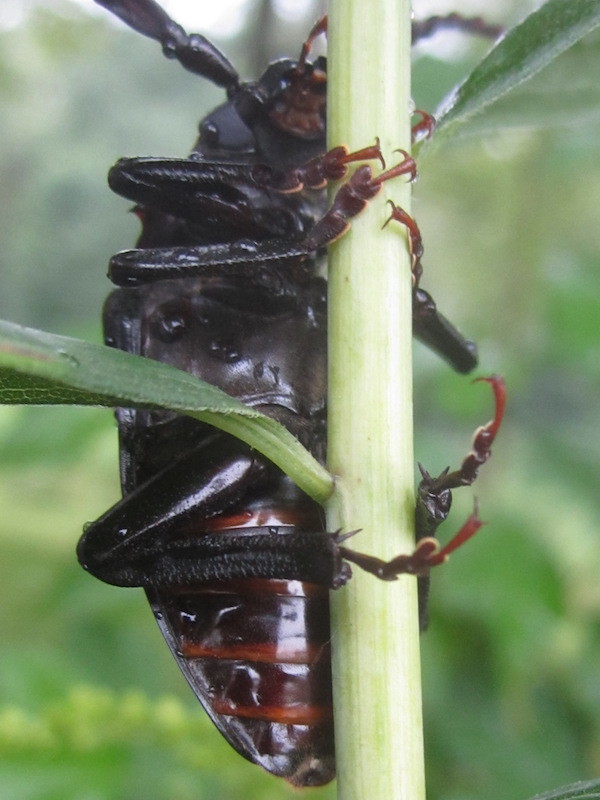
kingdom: Animalia
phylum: Arthropoda
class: Insecta
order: Coleoptera
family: Cerambycidae
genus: Prionus
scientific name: Prionus laticollis
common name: Broad necked prionus
